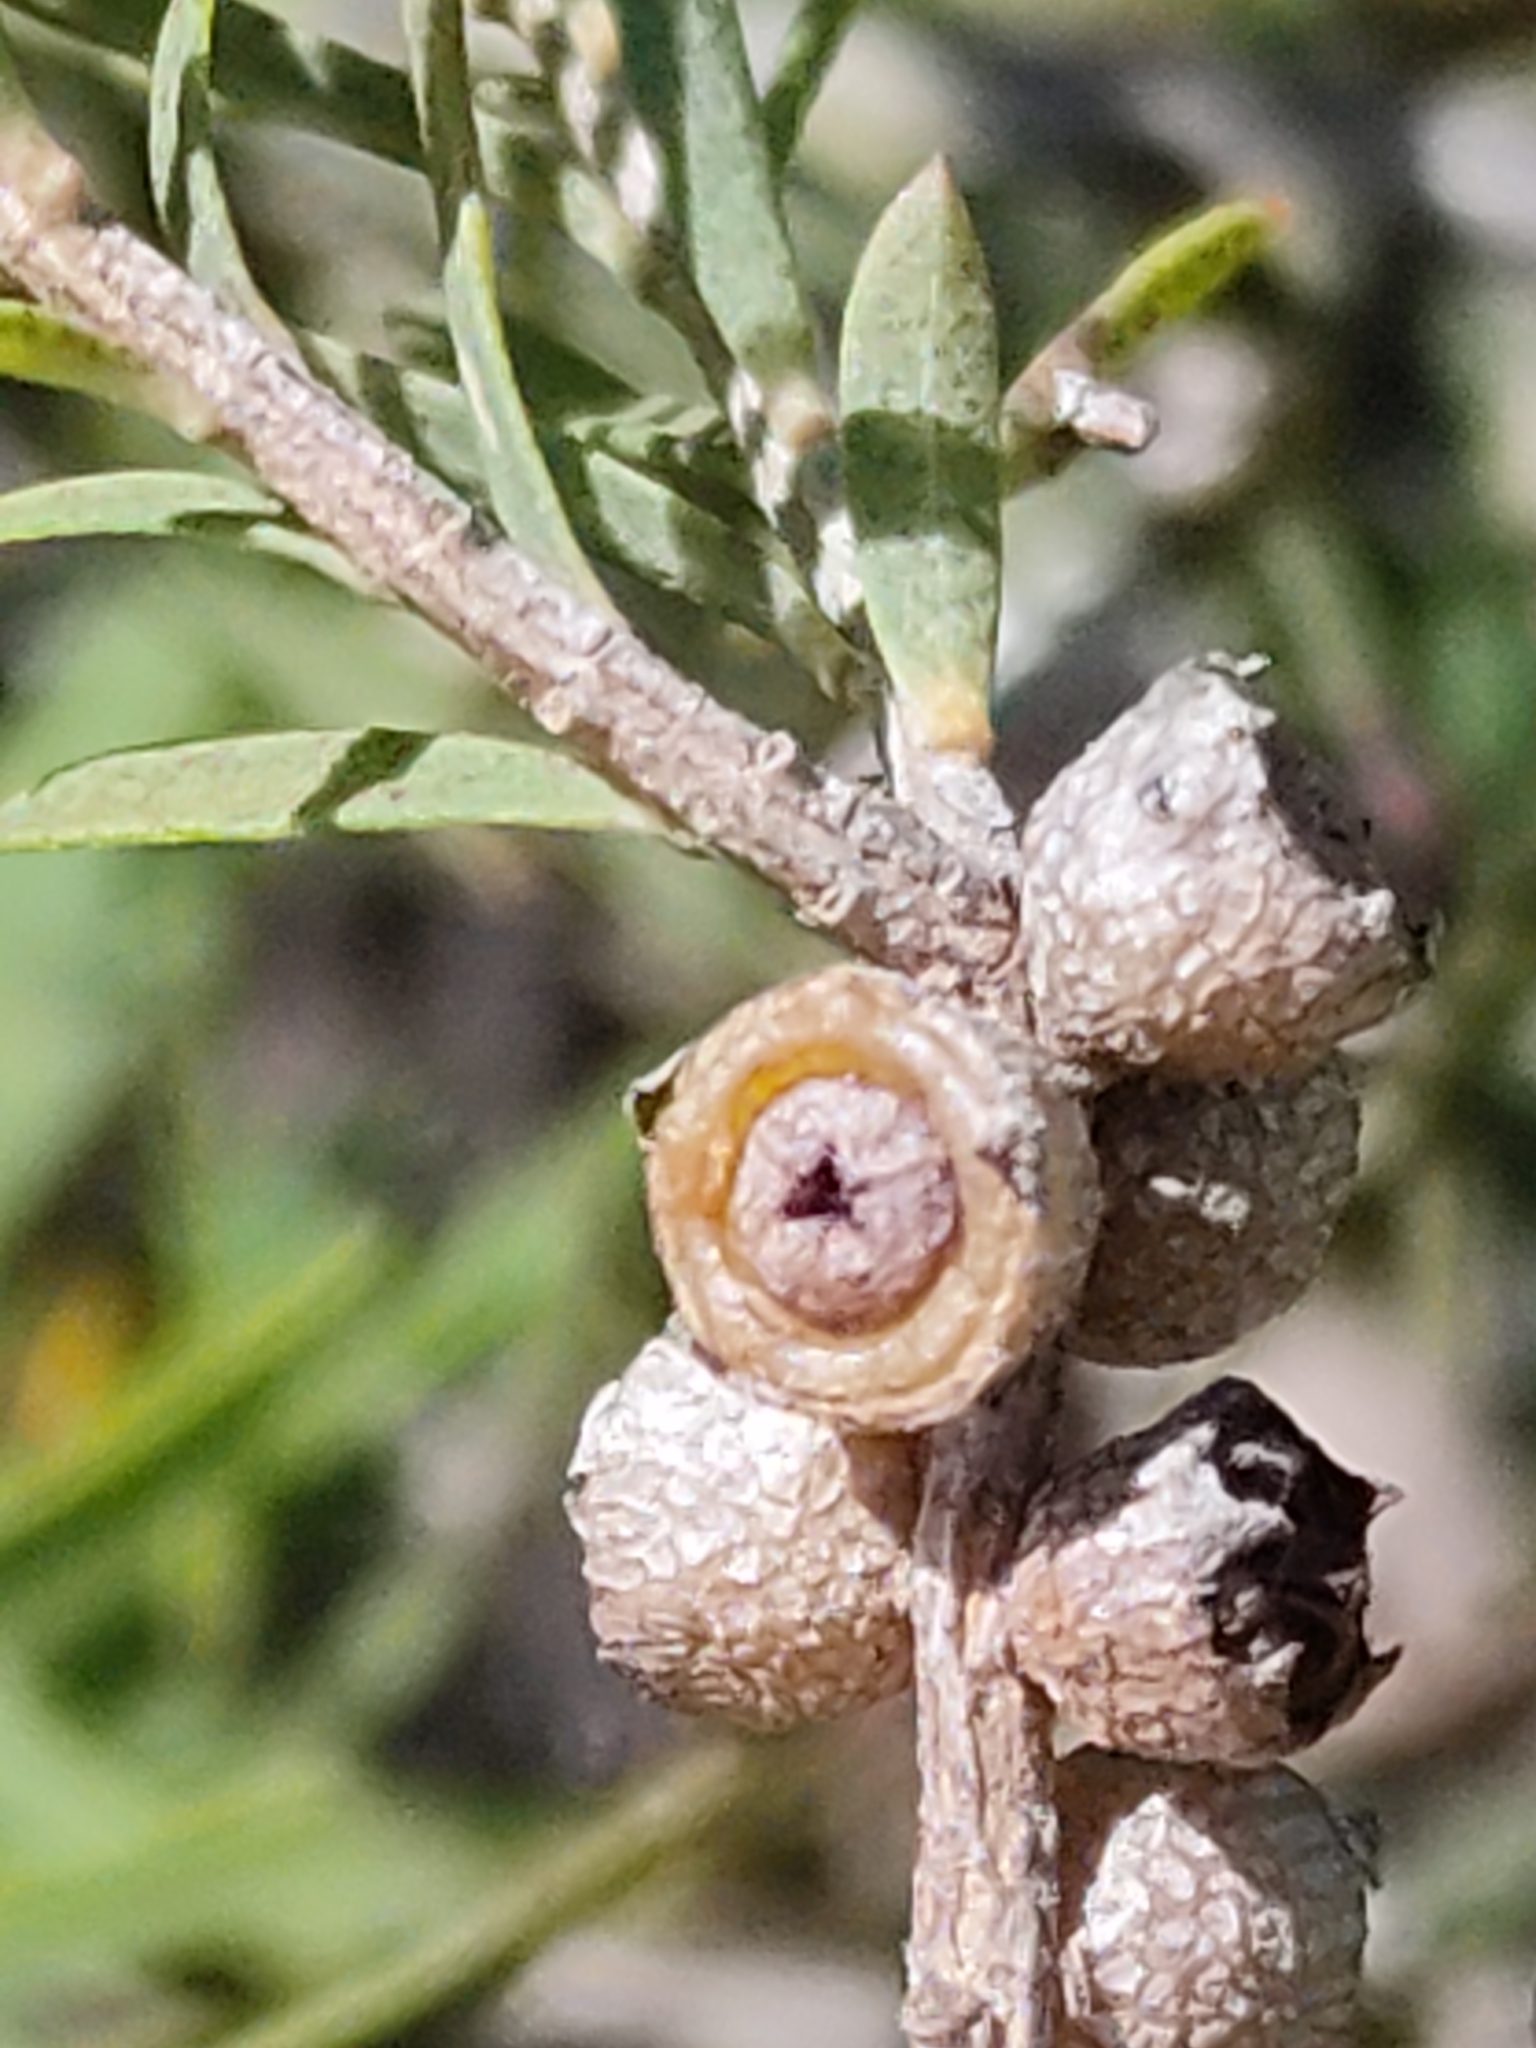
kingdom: Plantae
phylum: Tracheophyta
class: Magnoliopsida
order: Myrtales
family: Myrtaceae
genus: Melaleuca
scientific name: Melaleuca trichostachya
